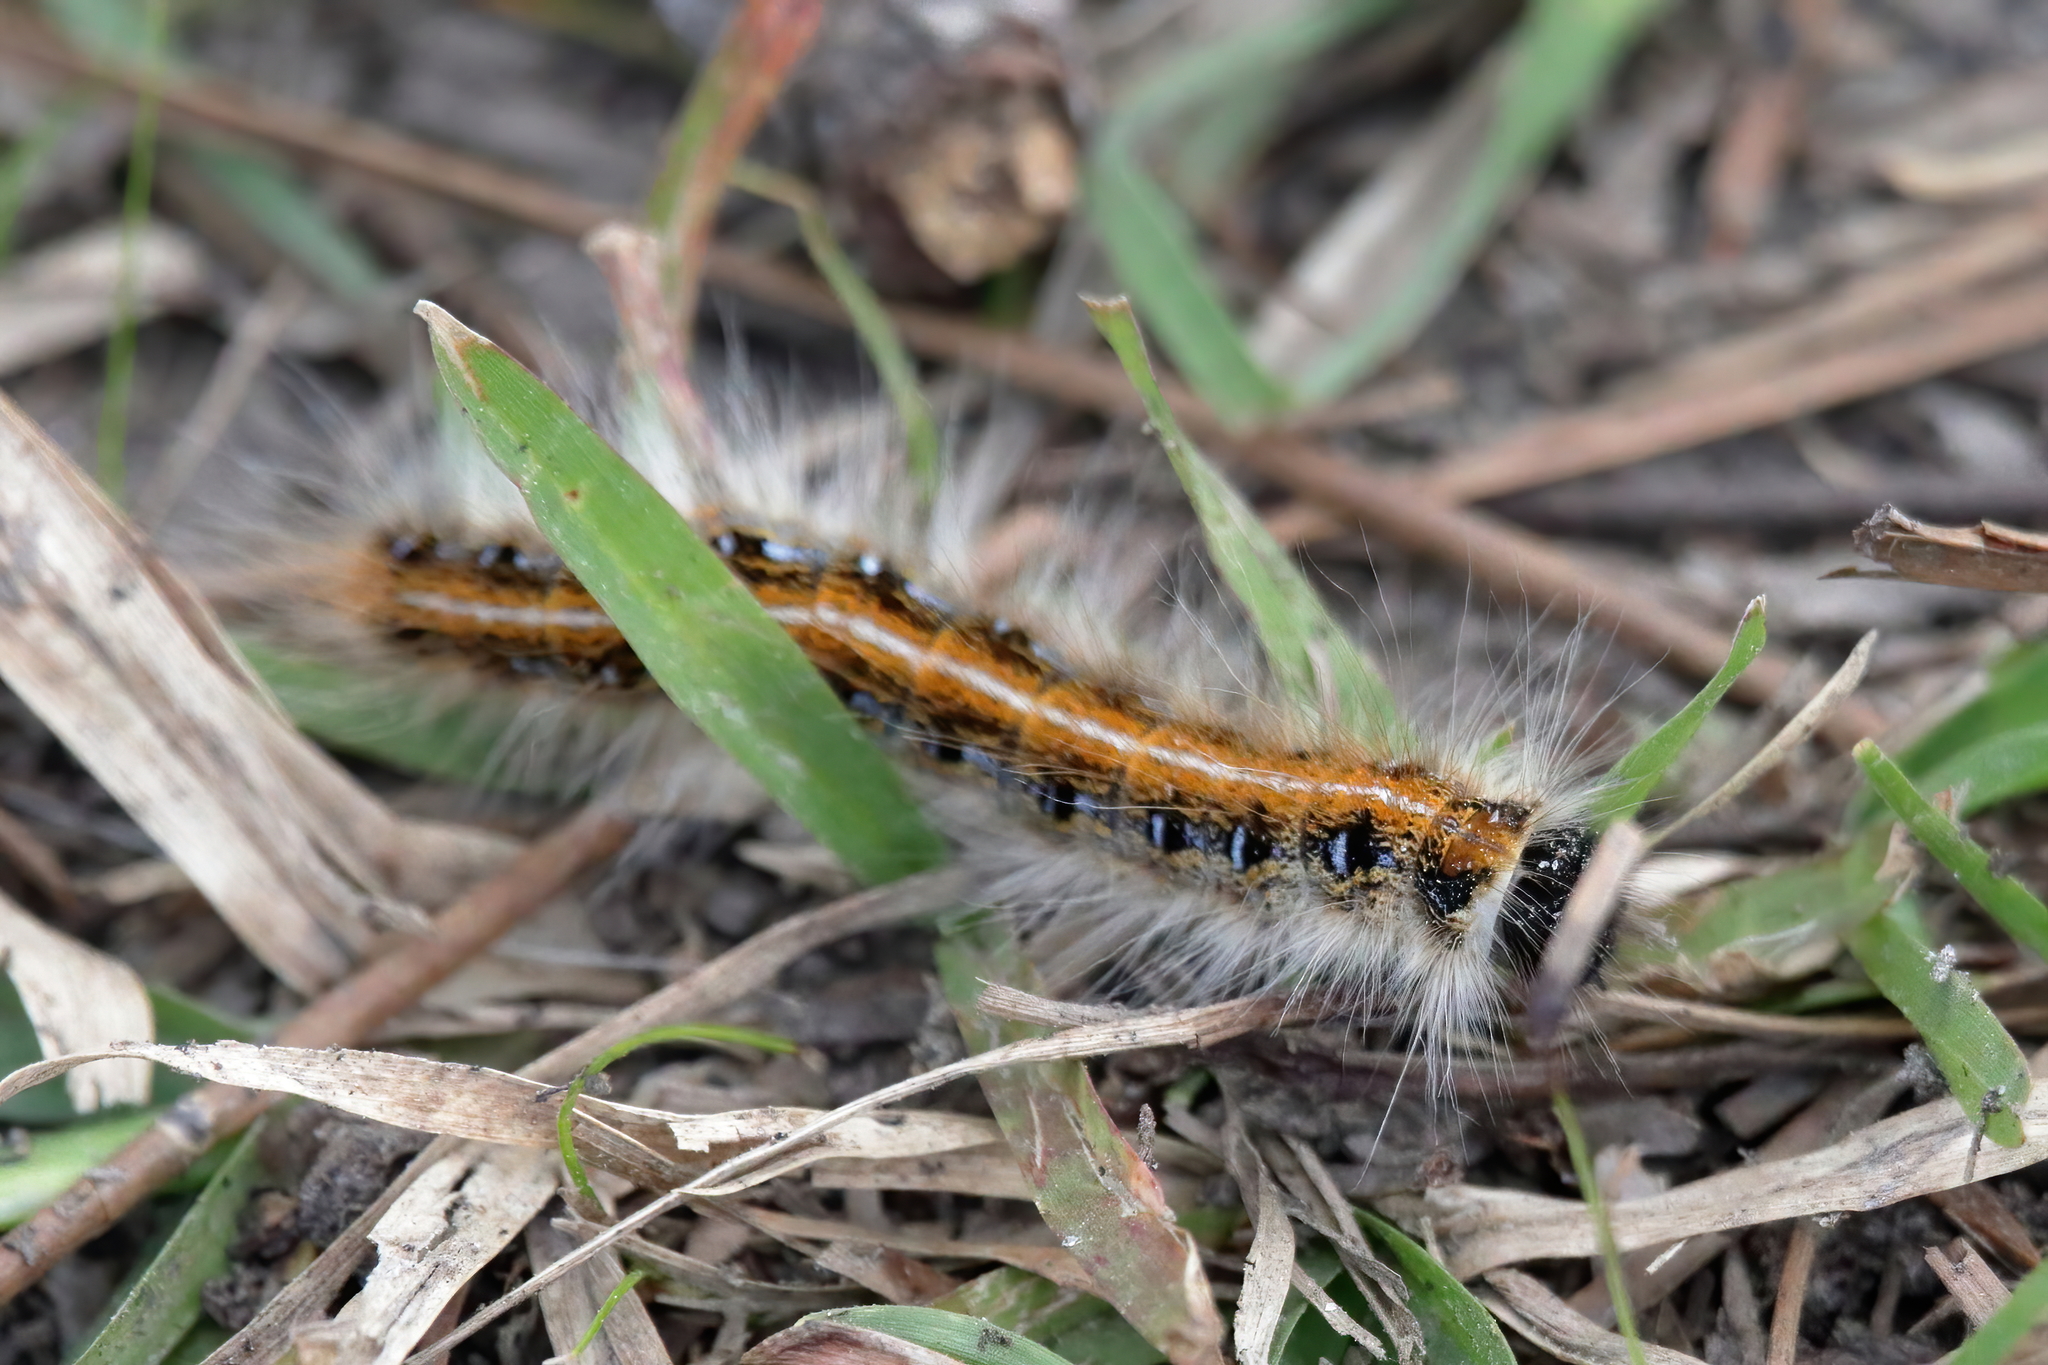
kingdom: Animalia
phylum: Arthropoda
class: Insecta
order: Lepidoptera
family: Lasiocampidae
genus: Malacosoma
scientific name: Malacosoma americana
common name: Eastern tent caterpillar moth
